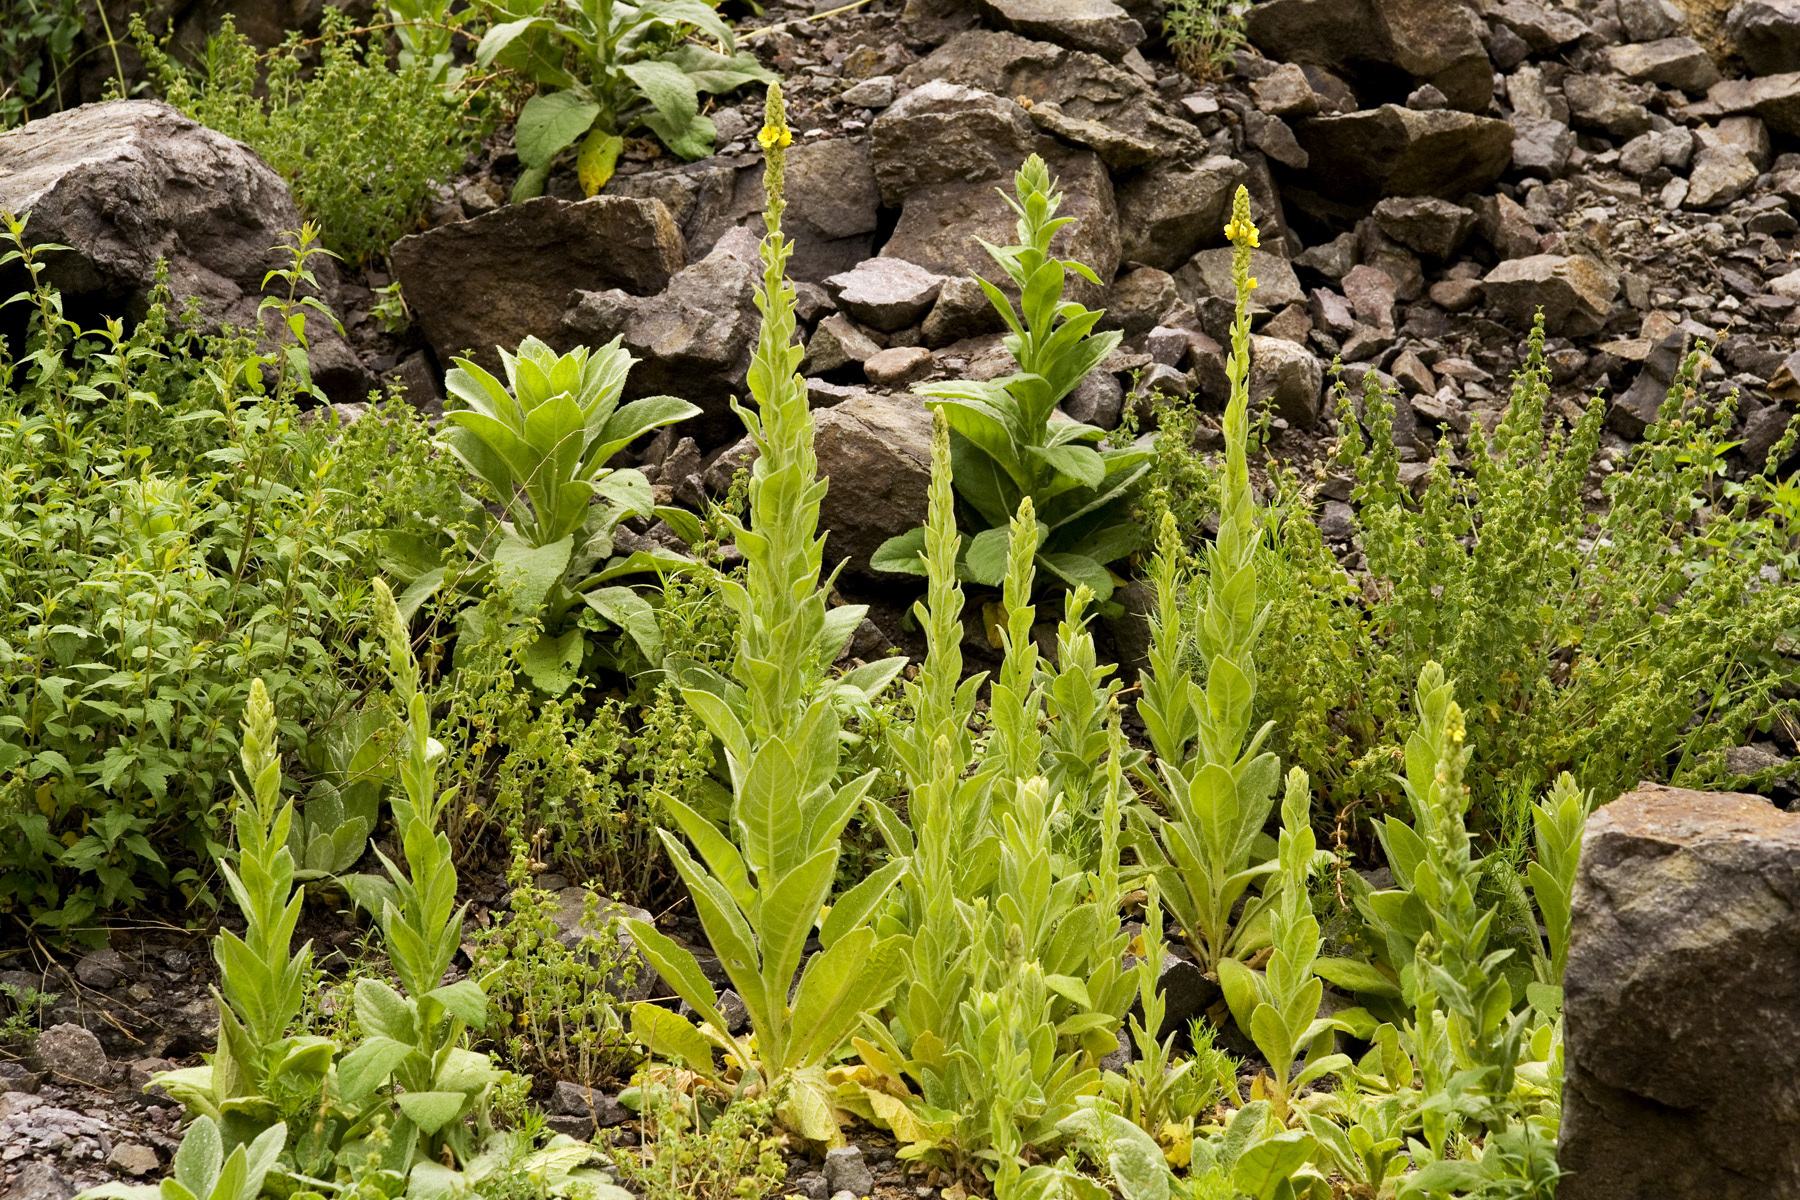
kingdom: Plantae
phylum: Tracheophyta
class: Magnoliopsida
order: Lamiales
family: Scrophulariaceae
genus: Verbascum
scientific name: Verbascum thapsus
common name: Common mullein
